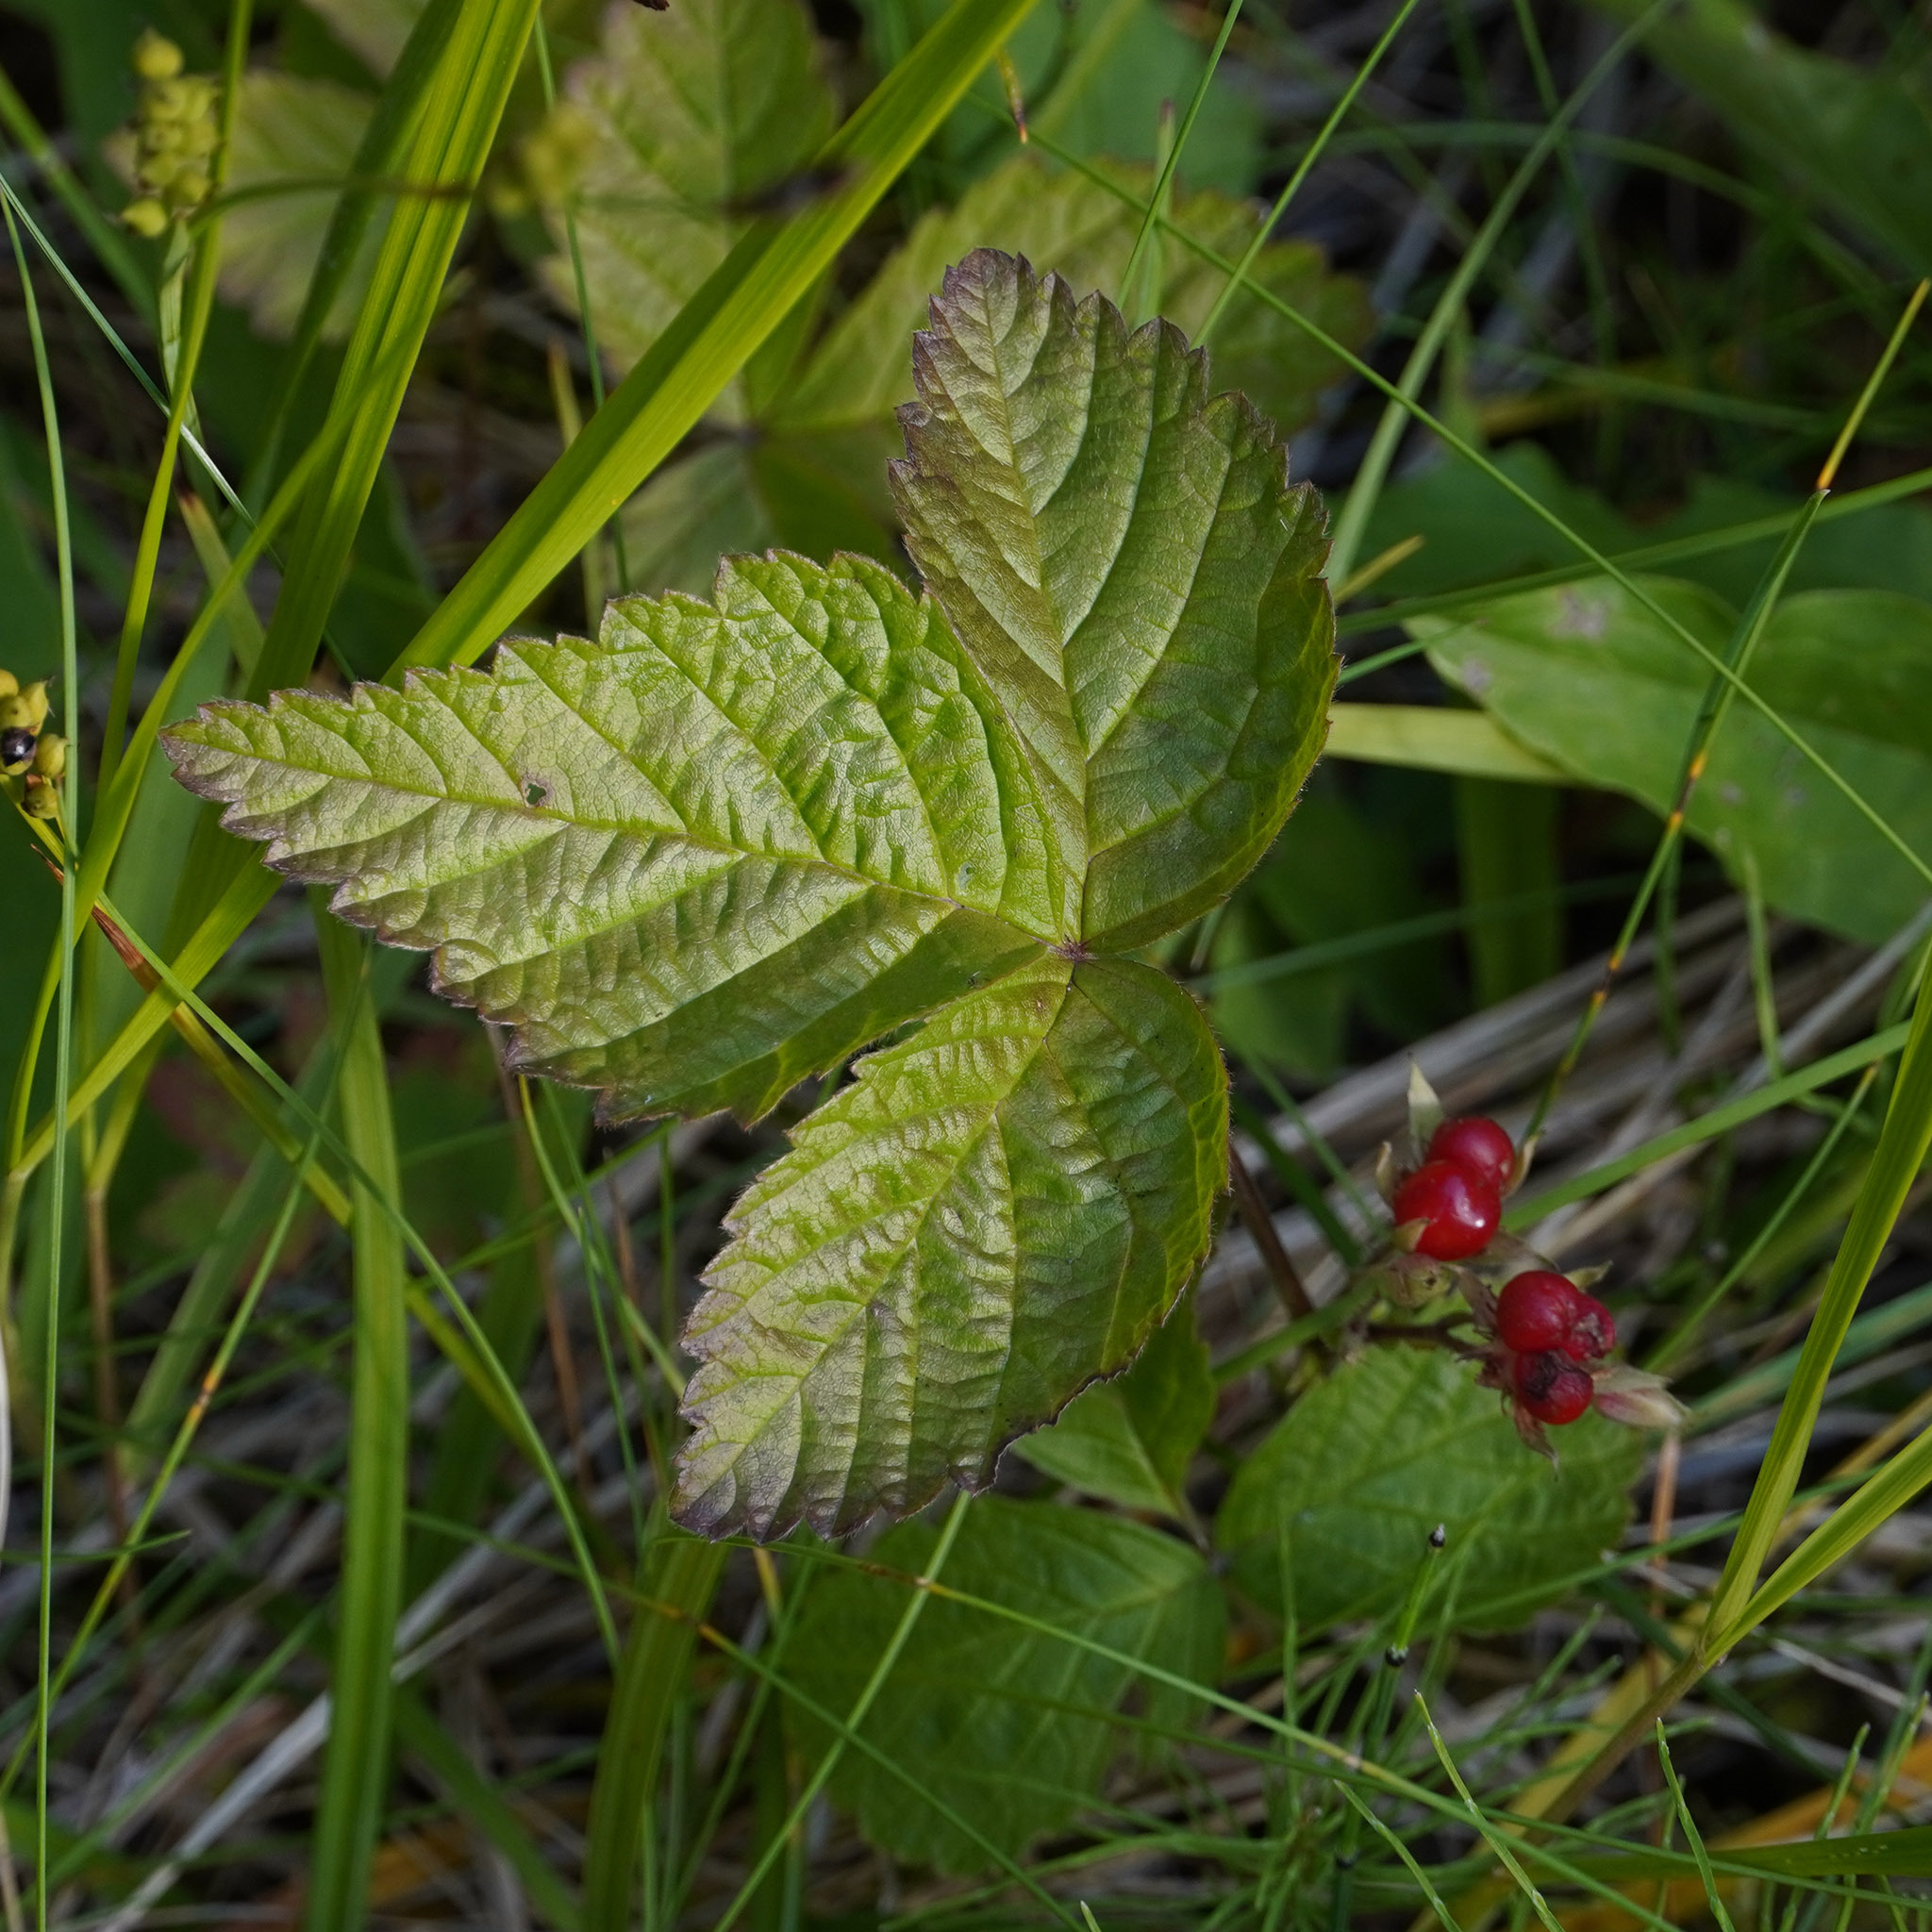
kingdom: Plantae
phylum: Tracheophyta
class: Magnoliopsida
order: Rosales
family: Rosaceae
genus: Rubus
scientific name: Rubus saxatilis
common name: Stone bramble
